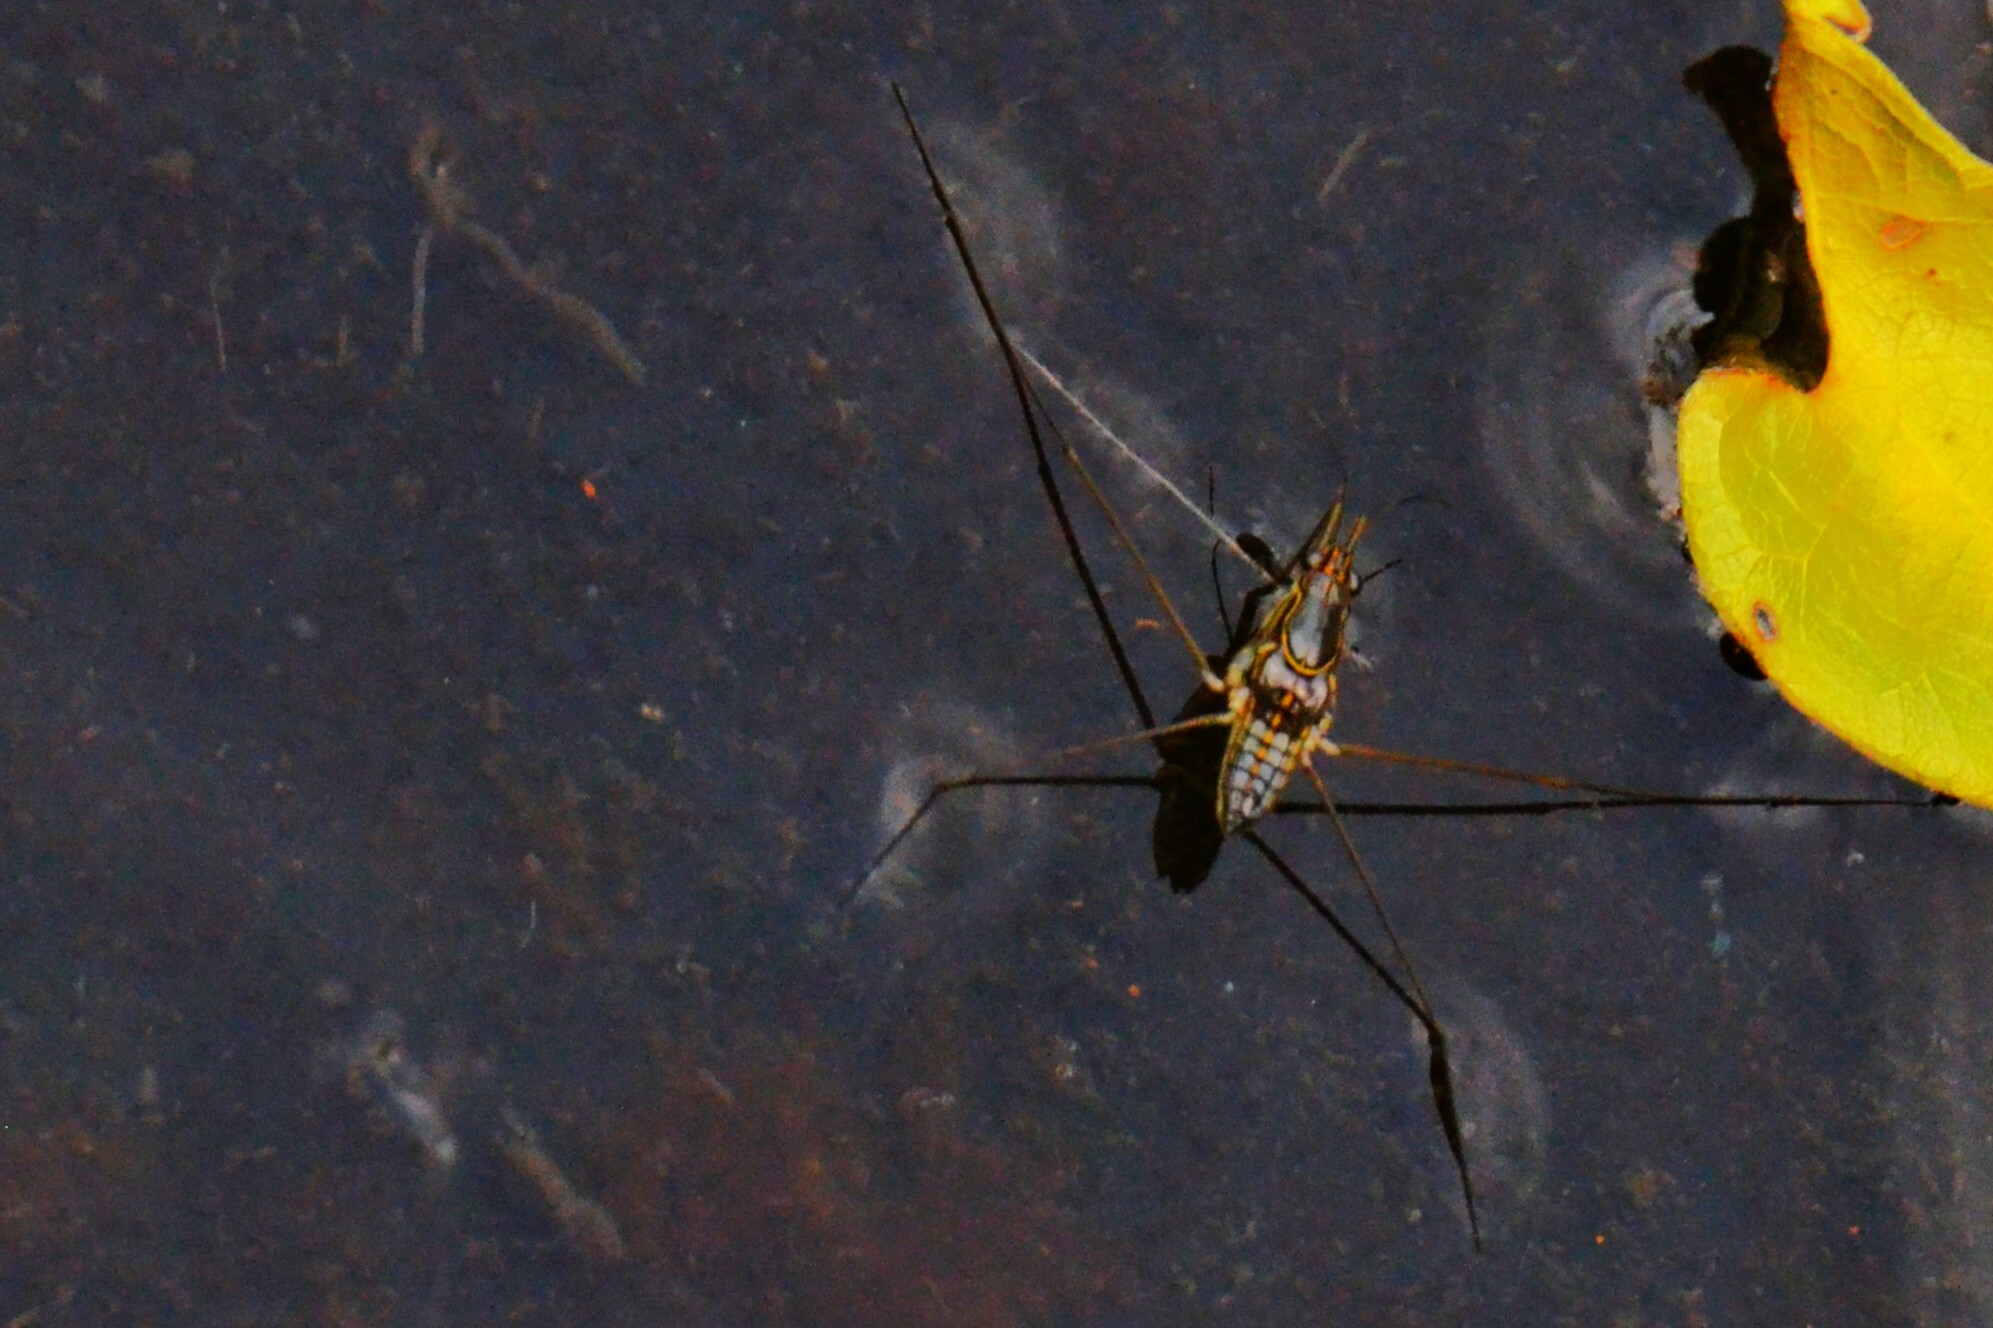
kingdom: Animalia
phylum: Arthropoda
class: Insecta
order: Hemiptera
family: Gerridae
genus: Limnogonus
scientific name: Limnogonus fossarum
